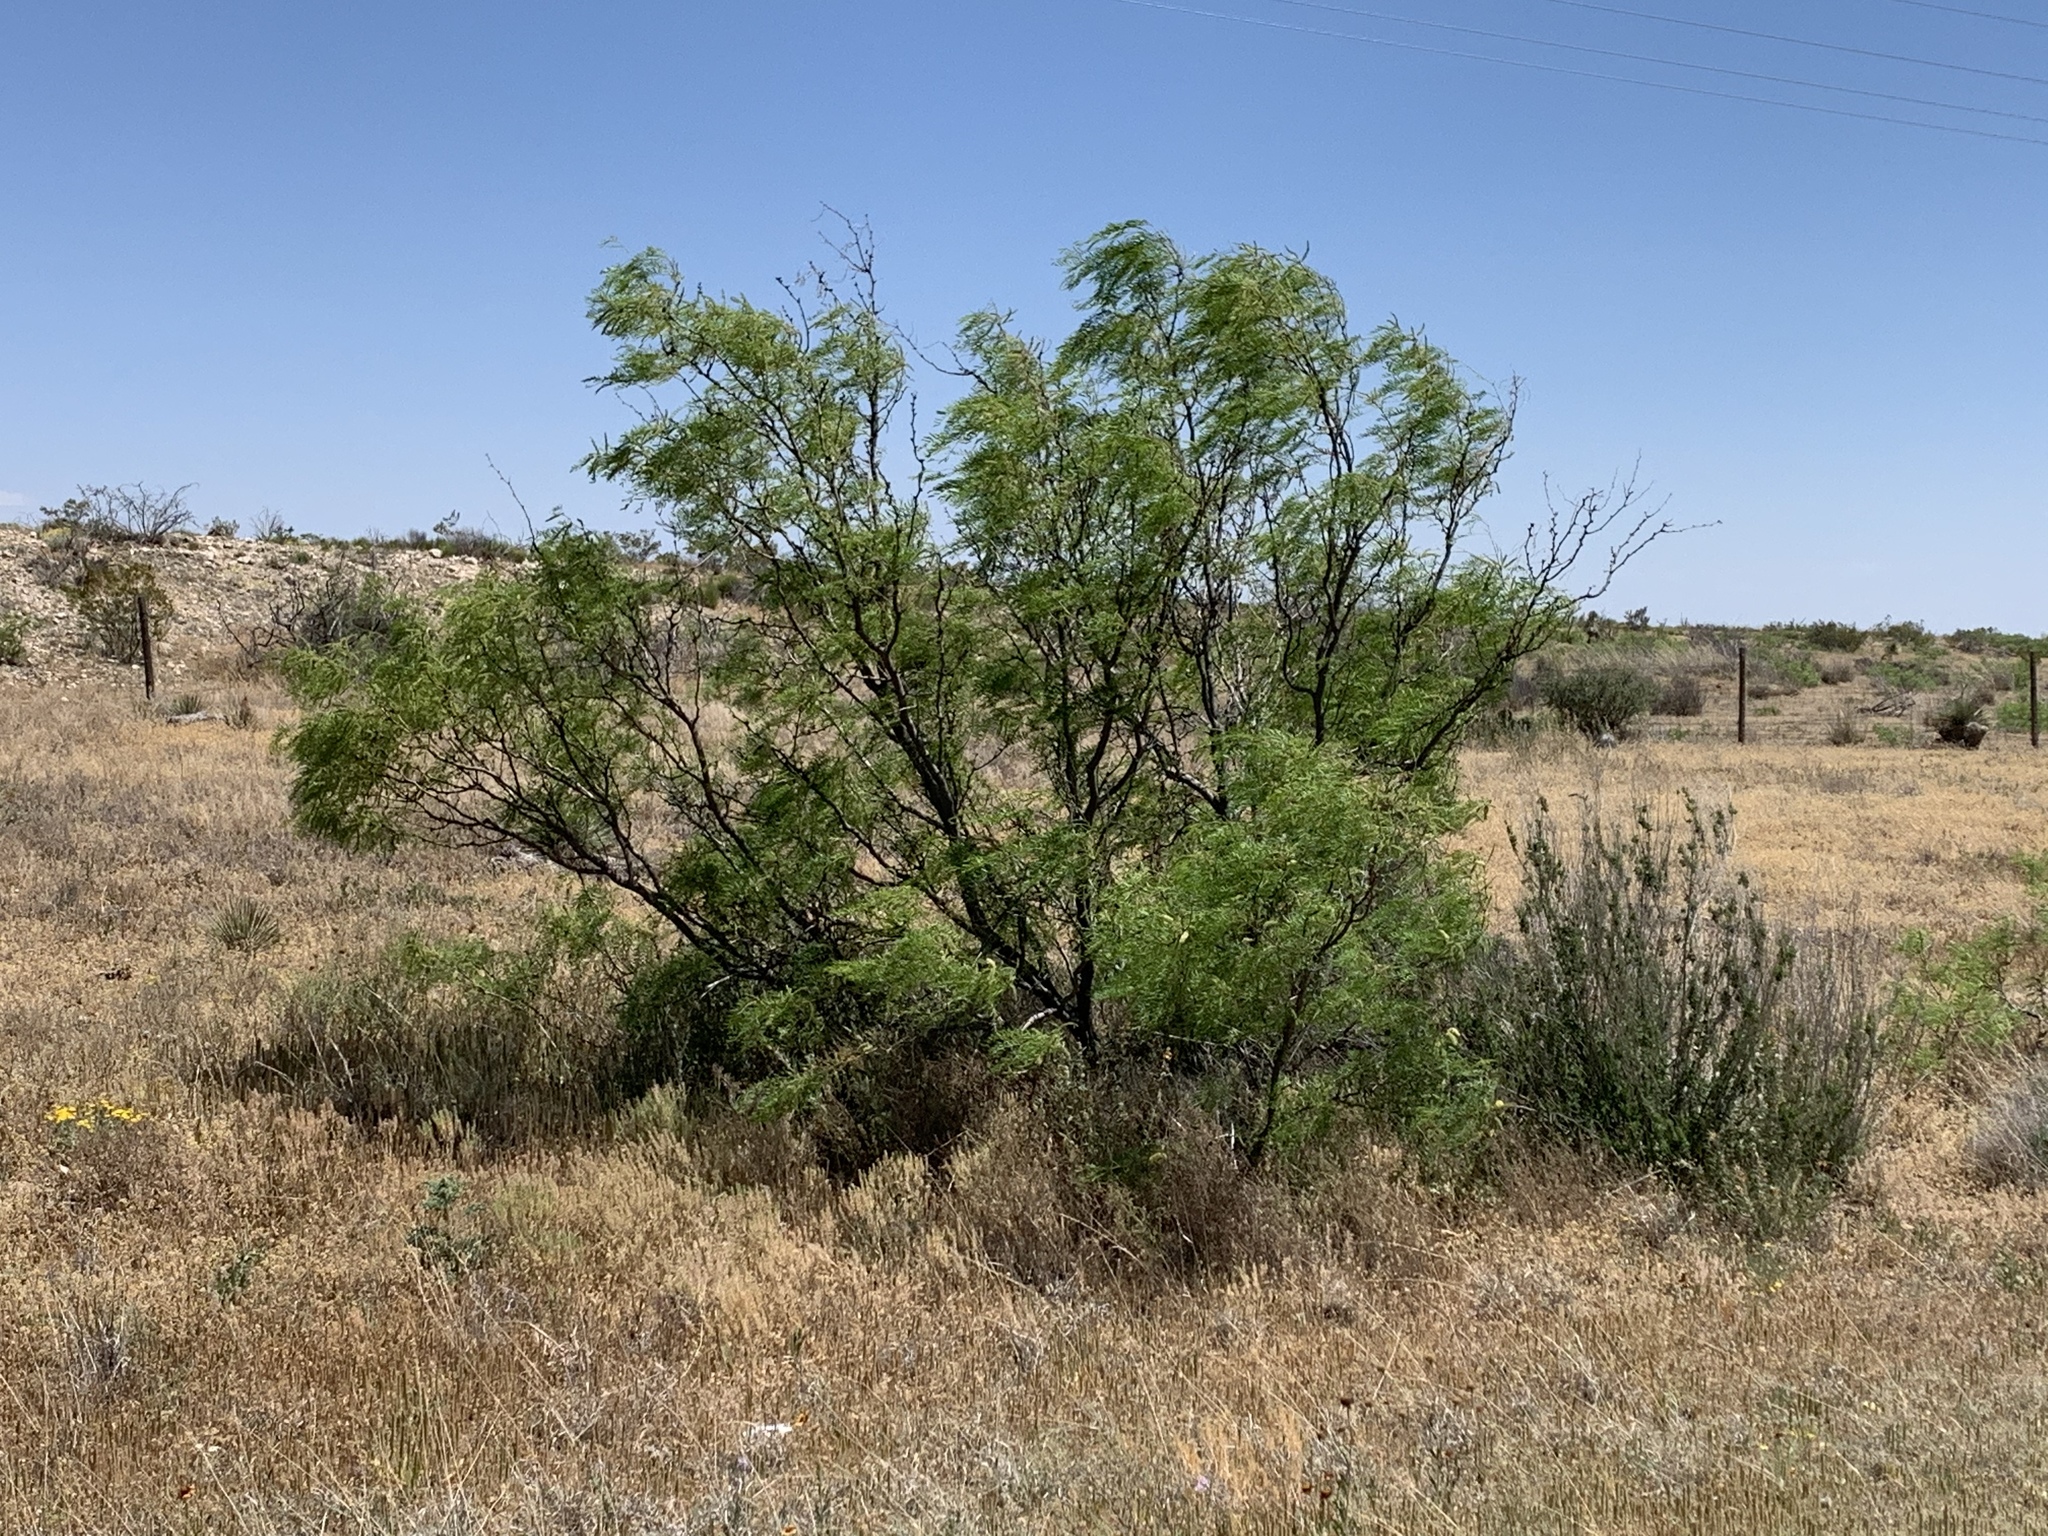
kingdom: Plantae
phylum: Tracheophyta
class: Magnoliopsida
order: Fabales
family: Fabaceae
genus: Prosopis
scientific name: Prosopis glandulosa
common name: Honey mesquite
